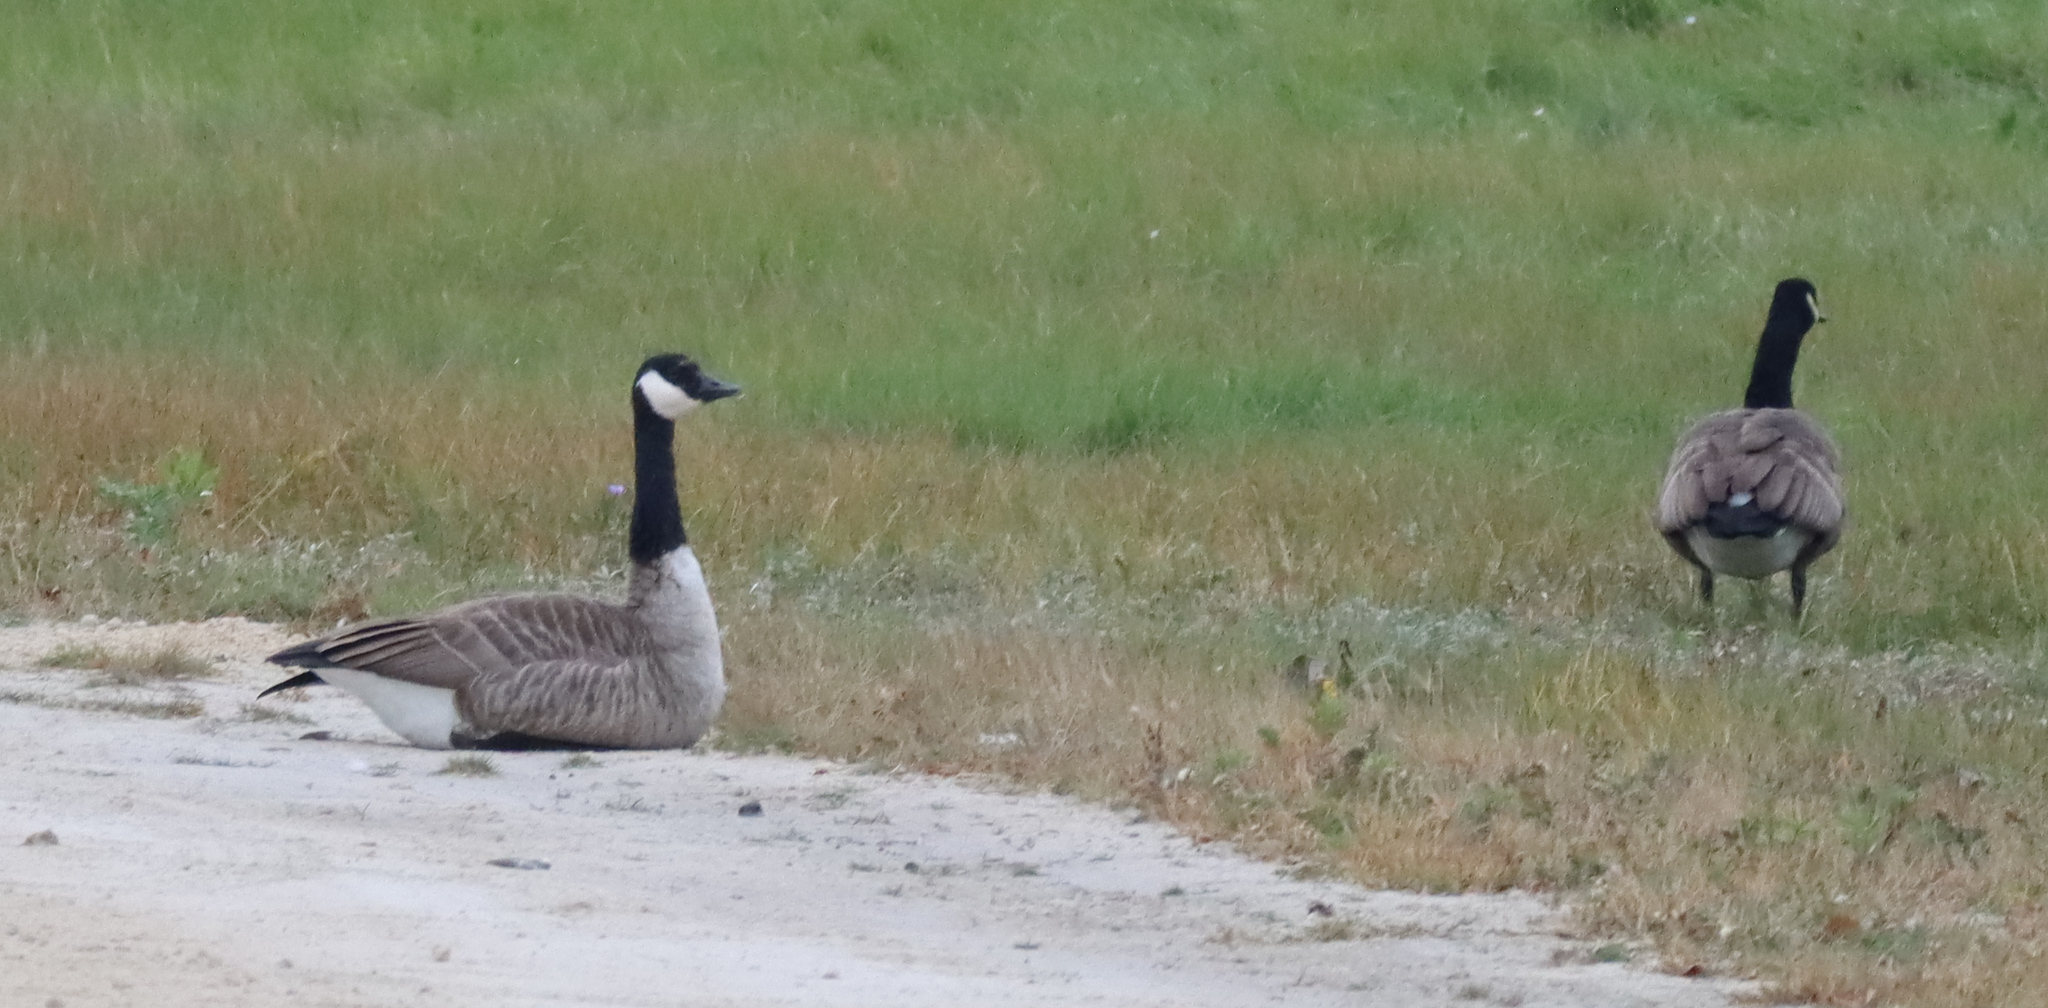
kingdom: Animalia
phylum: Chordata
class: Aves
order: Anseriformes
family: Anatidae
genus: Branta
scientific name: Branta canadensis
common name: Canada goose
